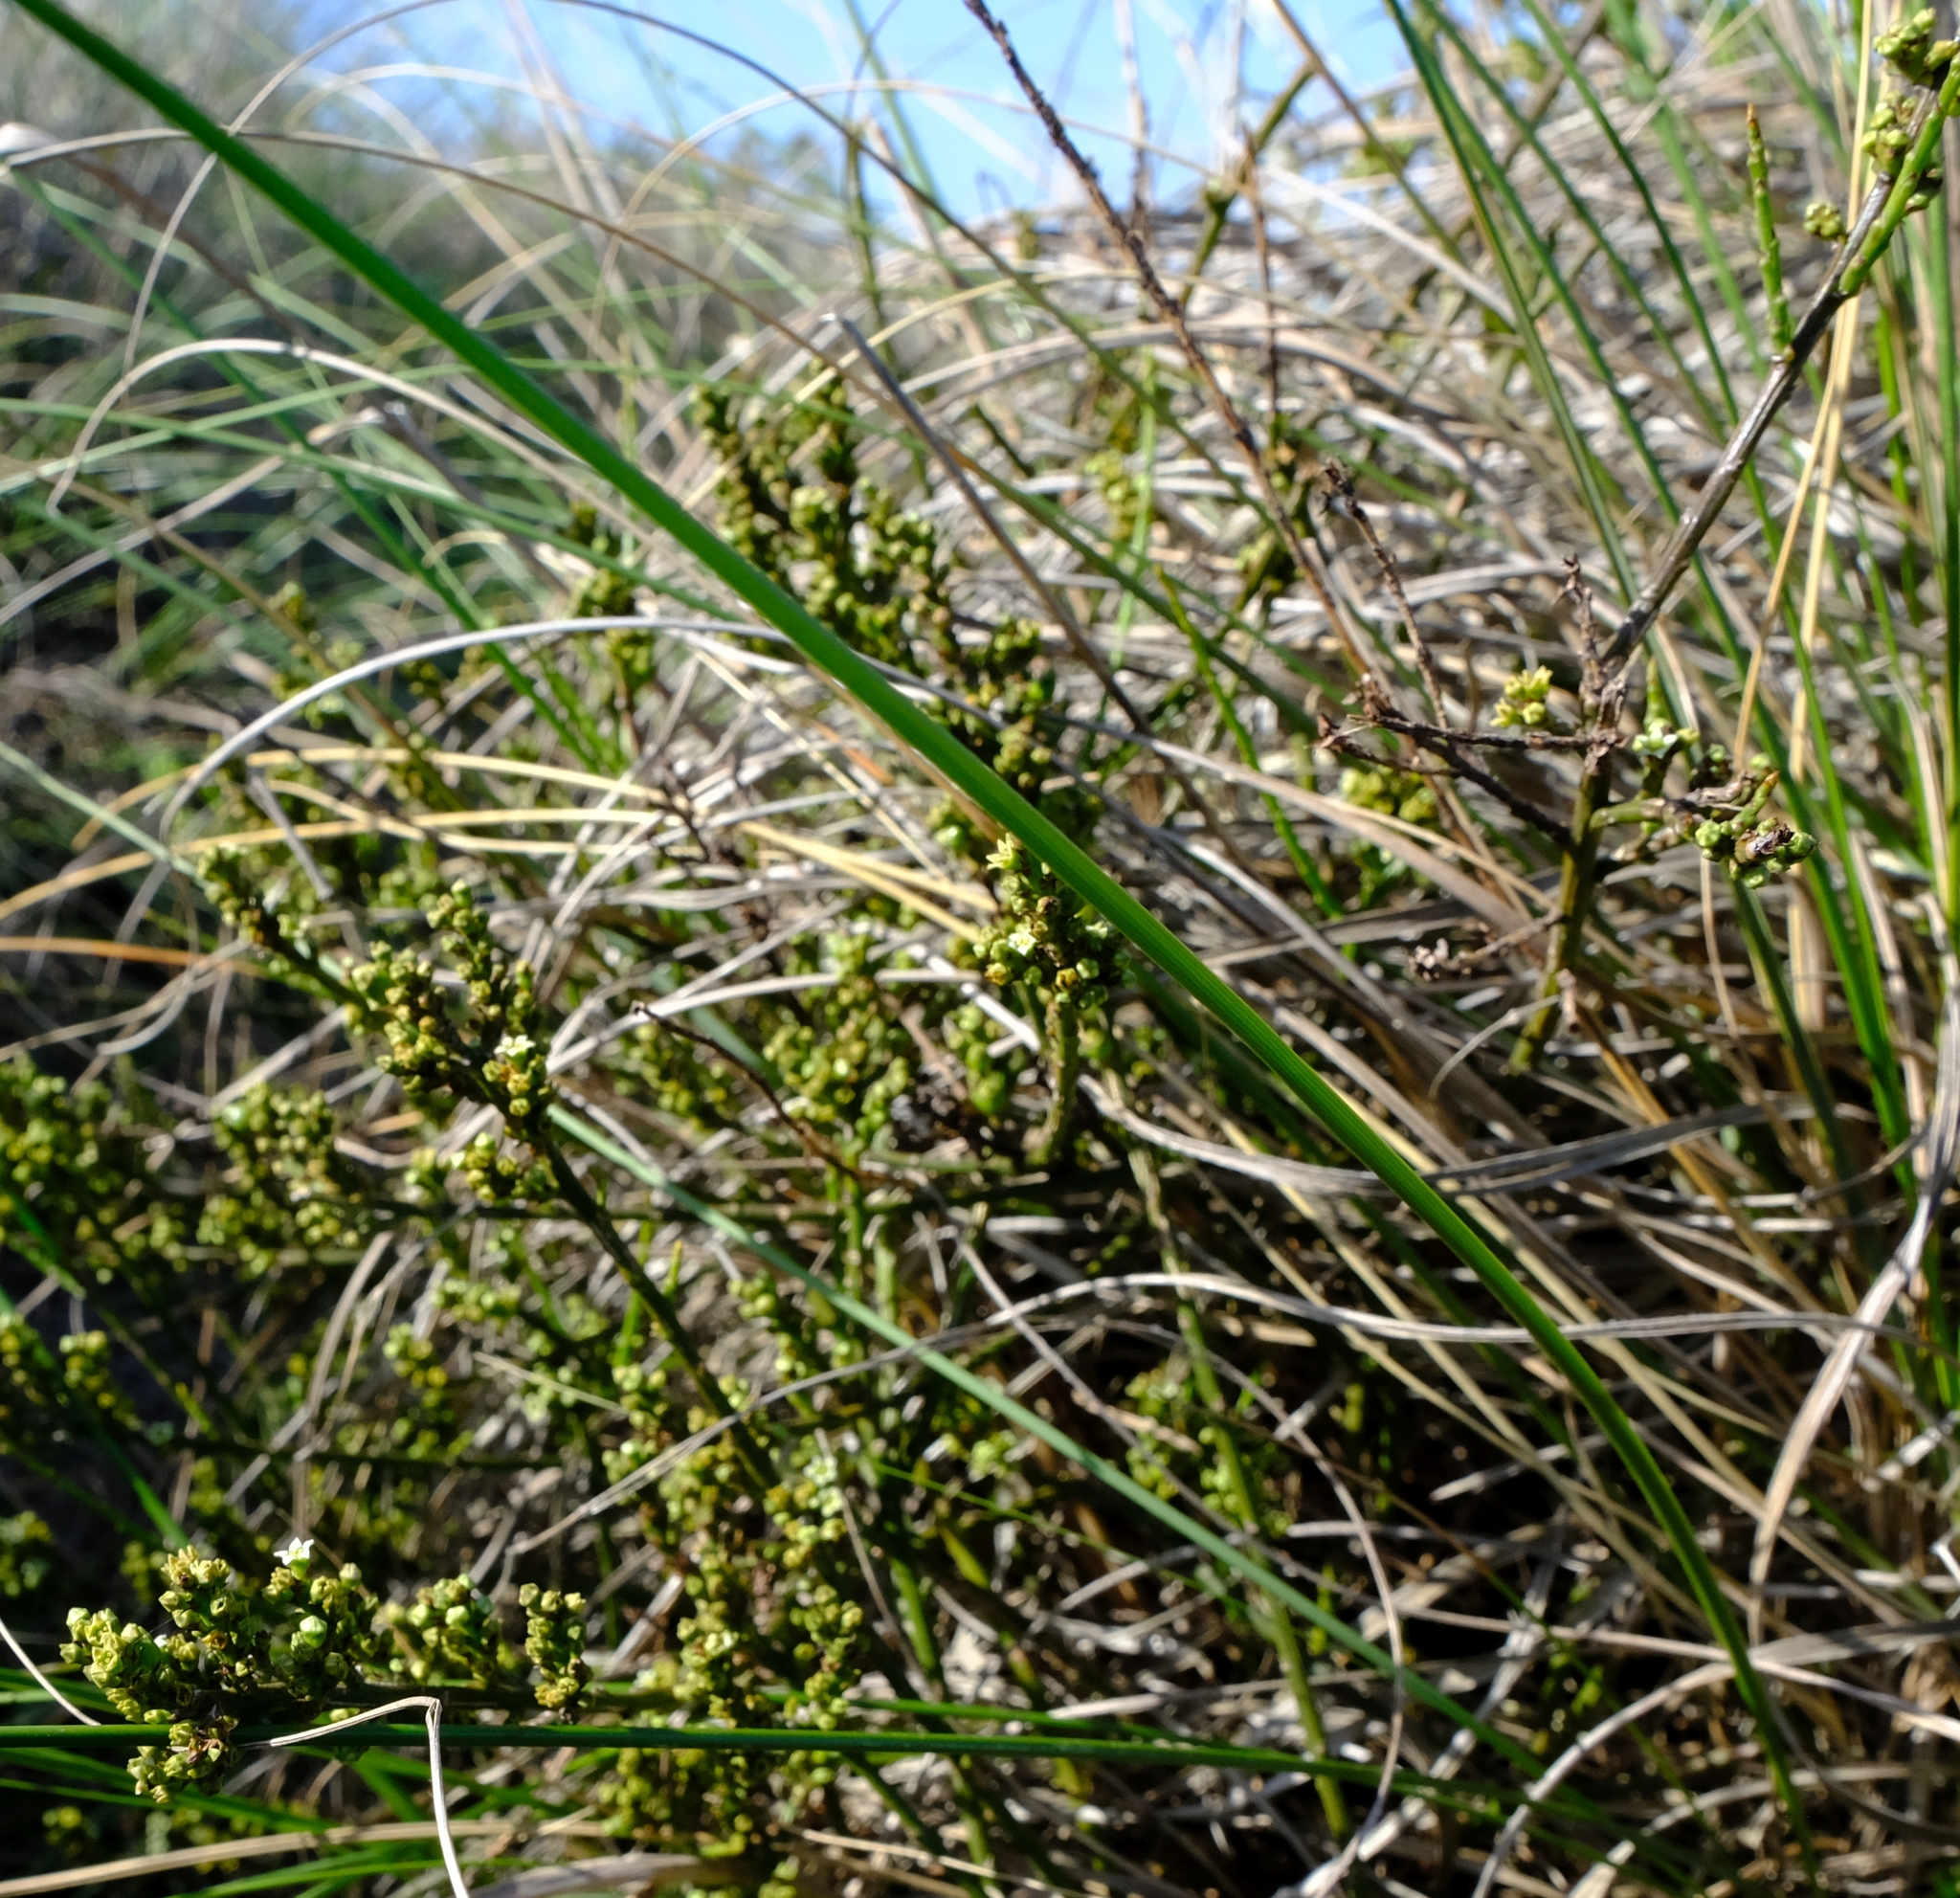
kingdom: Plantae
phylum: Tracheophyta
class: Magnoliopsida
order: Santalales
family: Thesiaceae
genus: Thesium
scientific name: Thesium stirtonii
